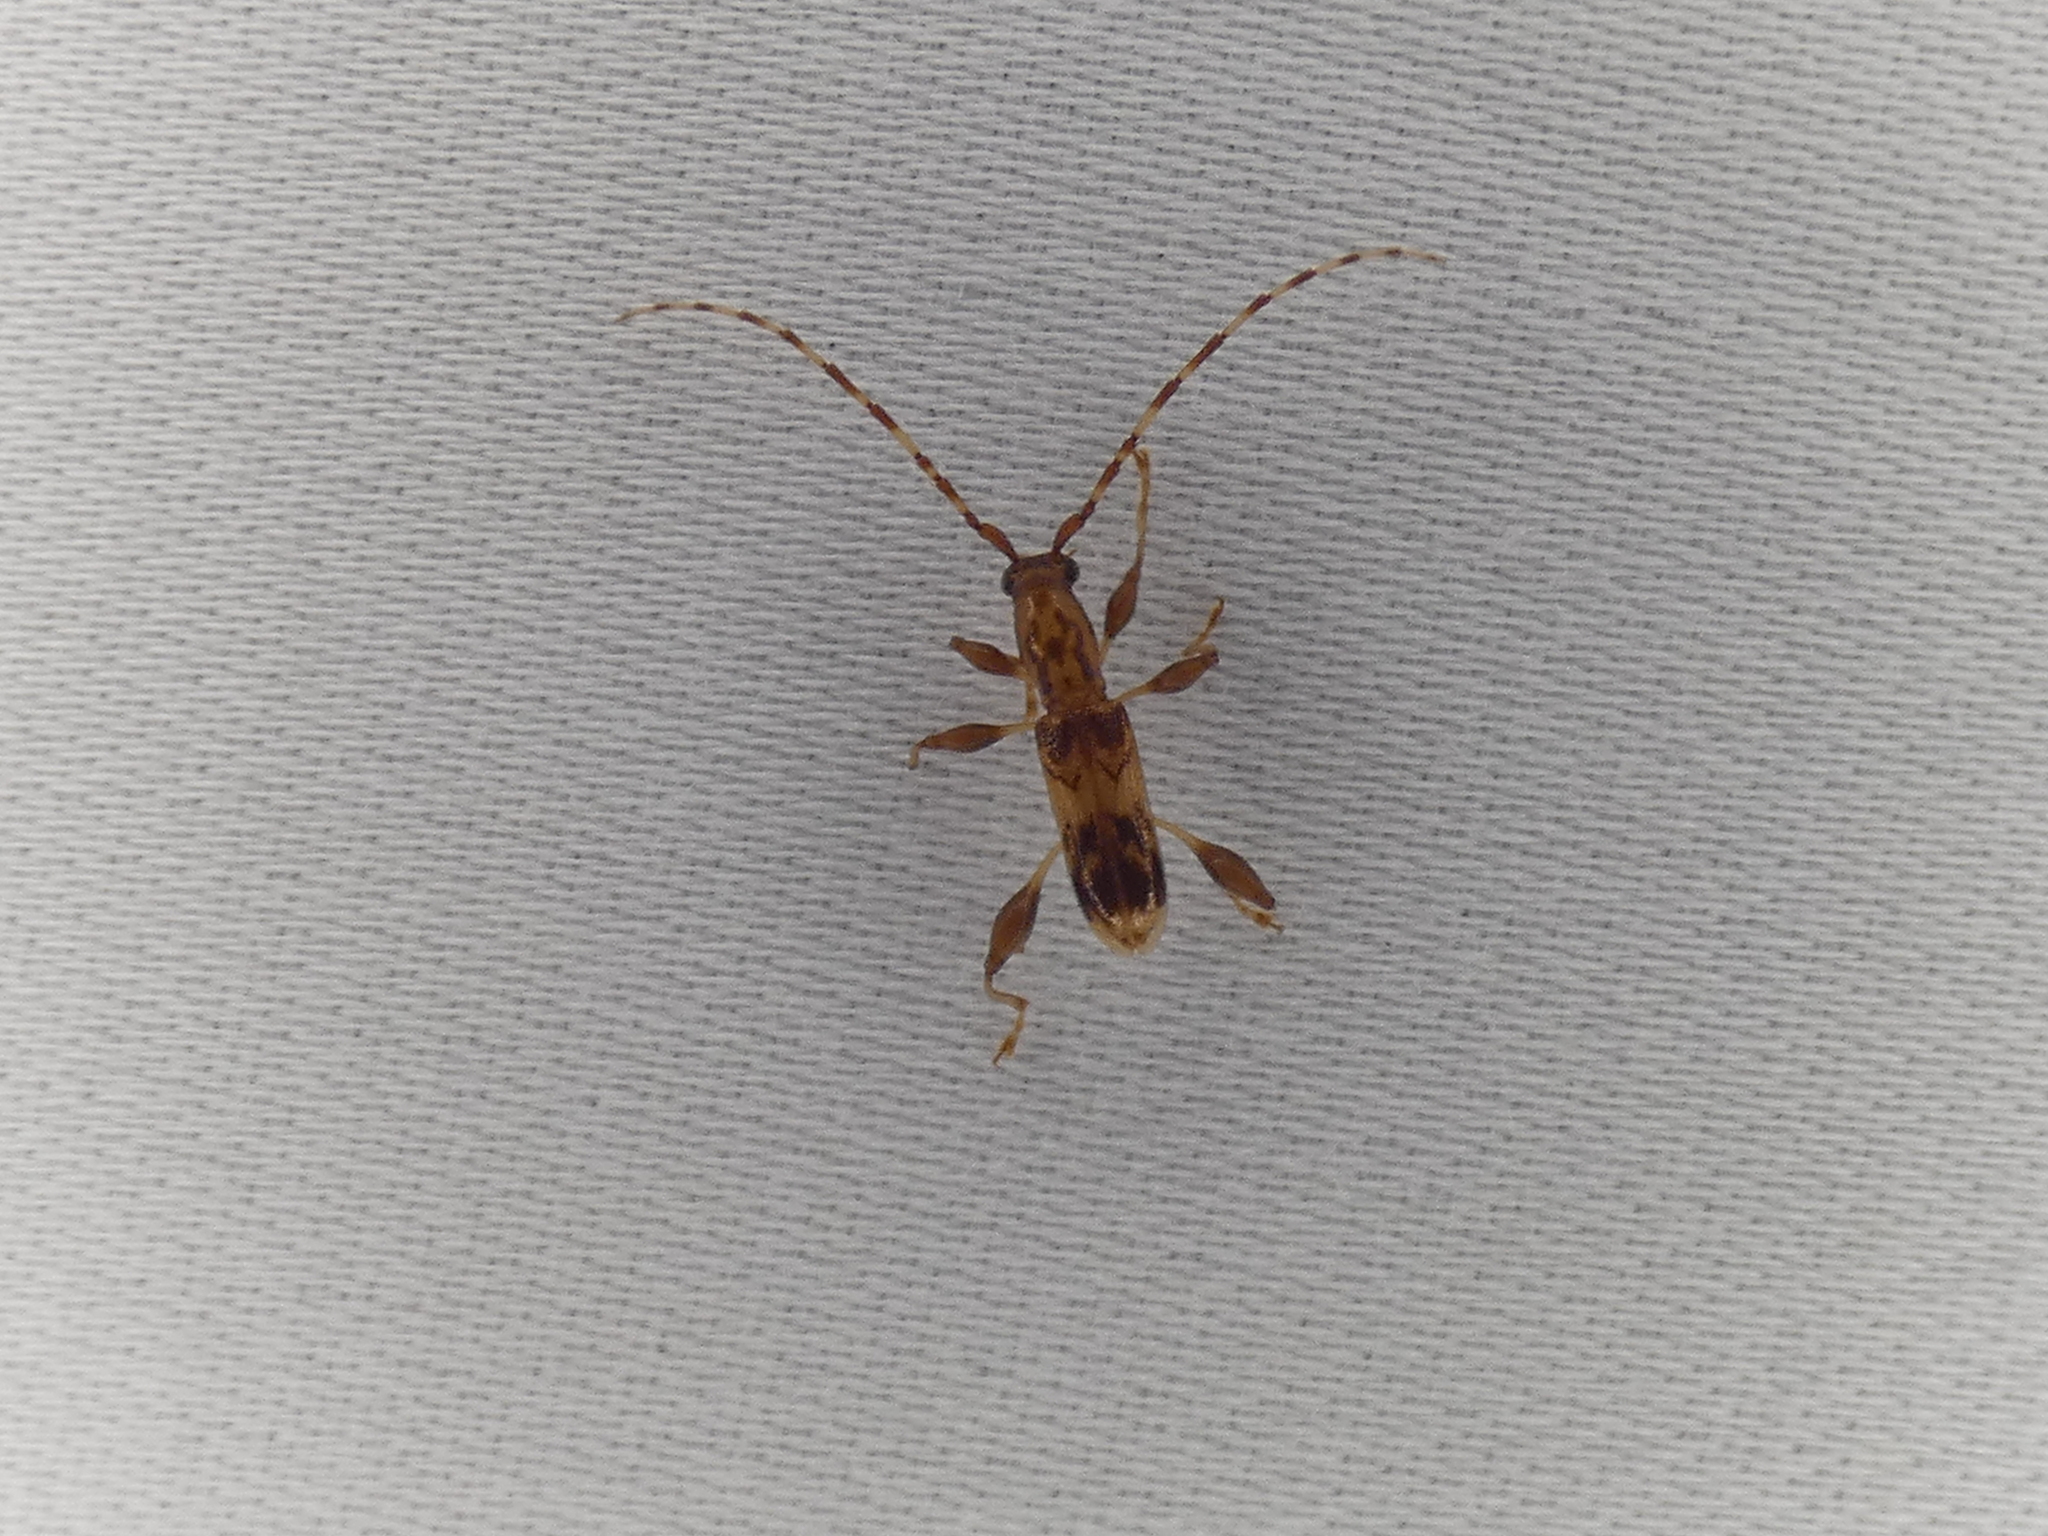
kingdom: Animalia
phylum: Arthropoda
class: Insecta
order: Coleoptera
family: Cerambycidae
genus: Plectromerus
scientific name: Plectromerus dentipes
